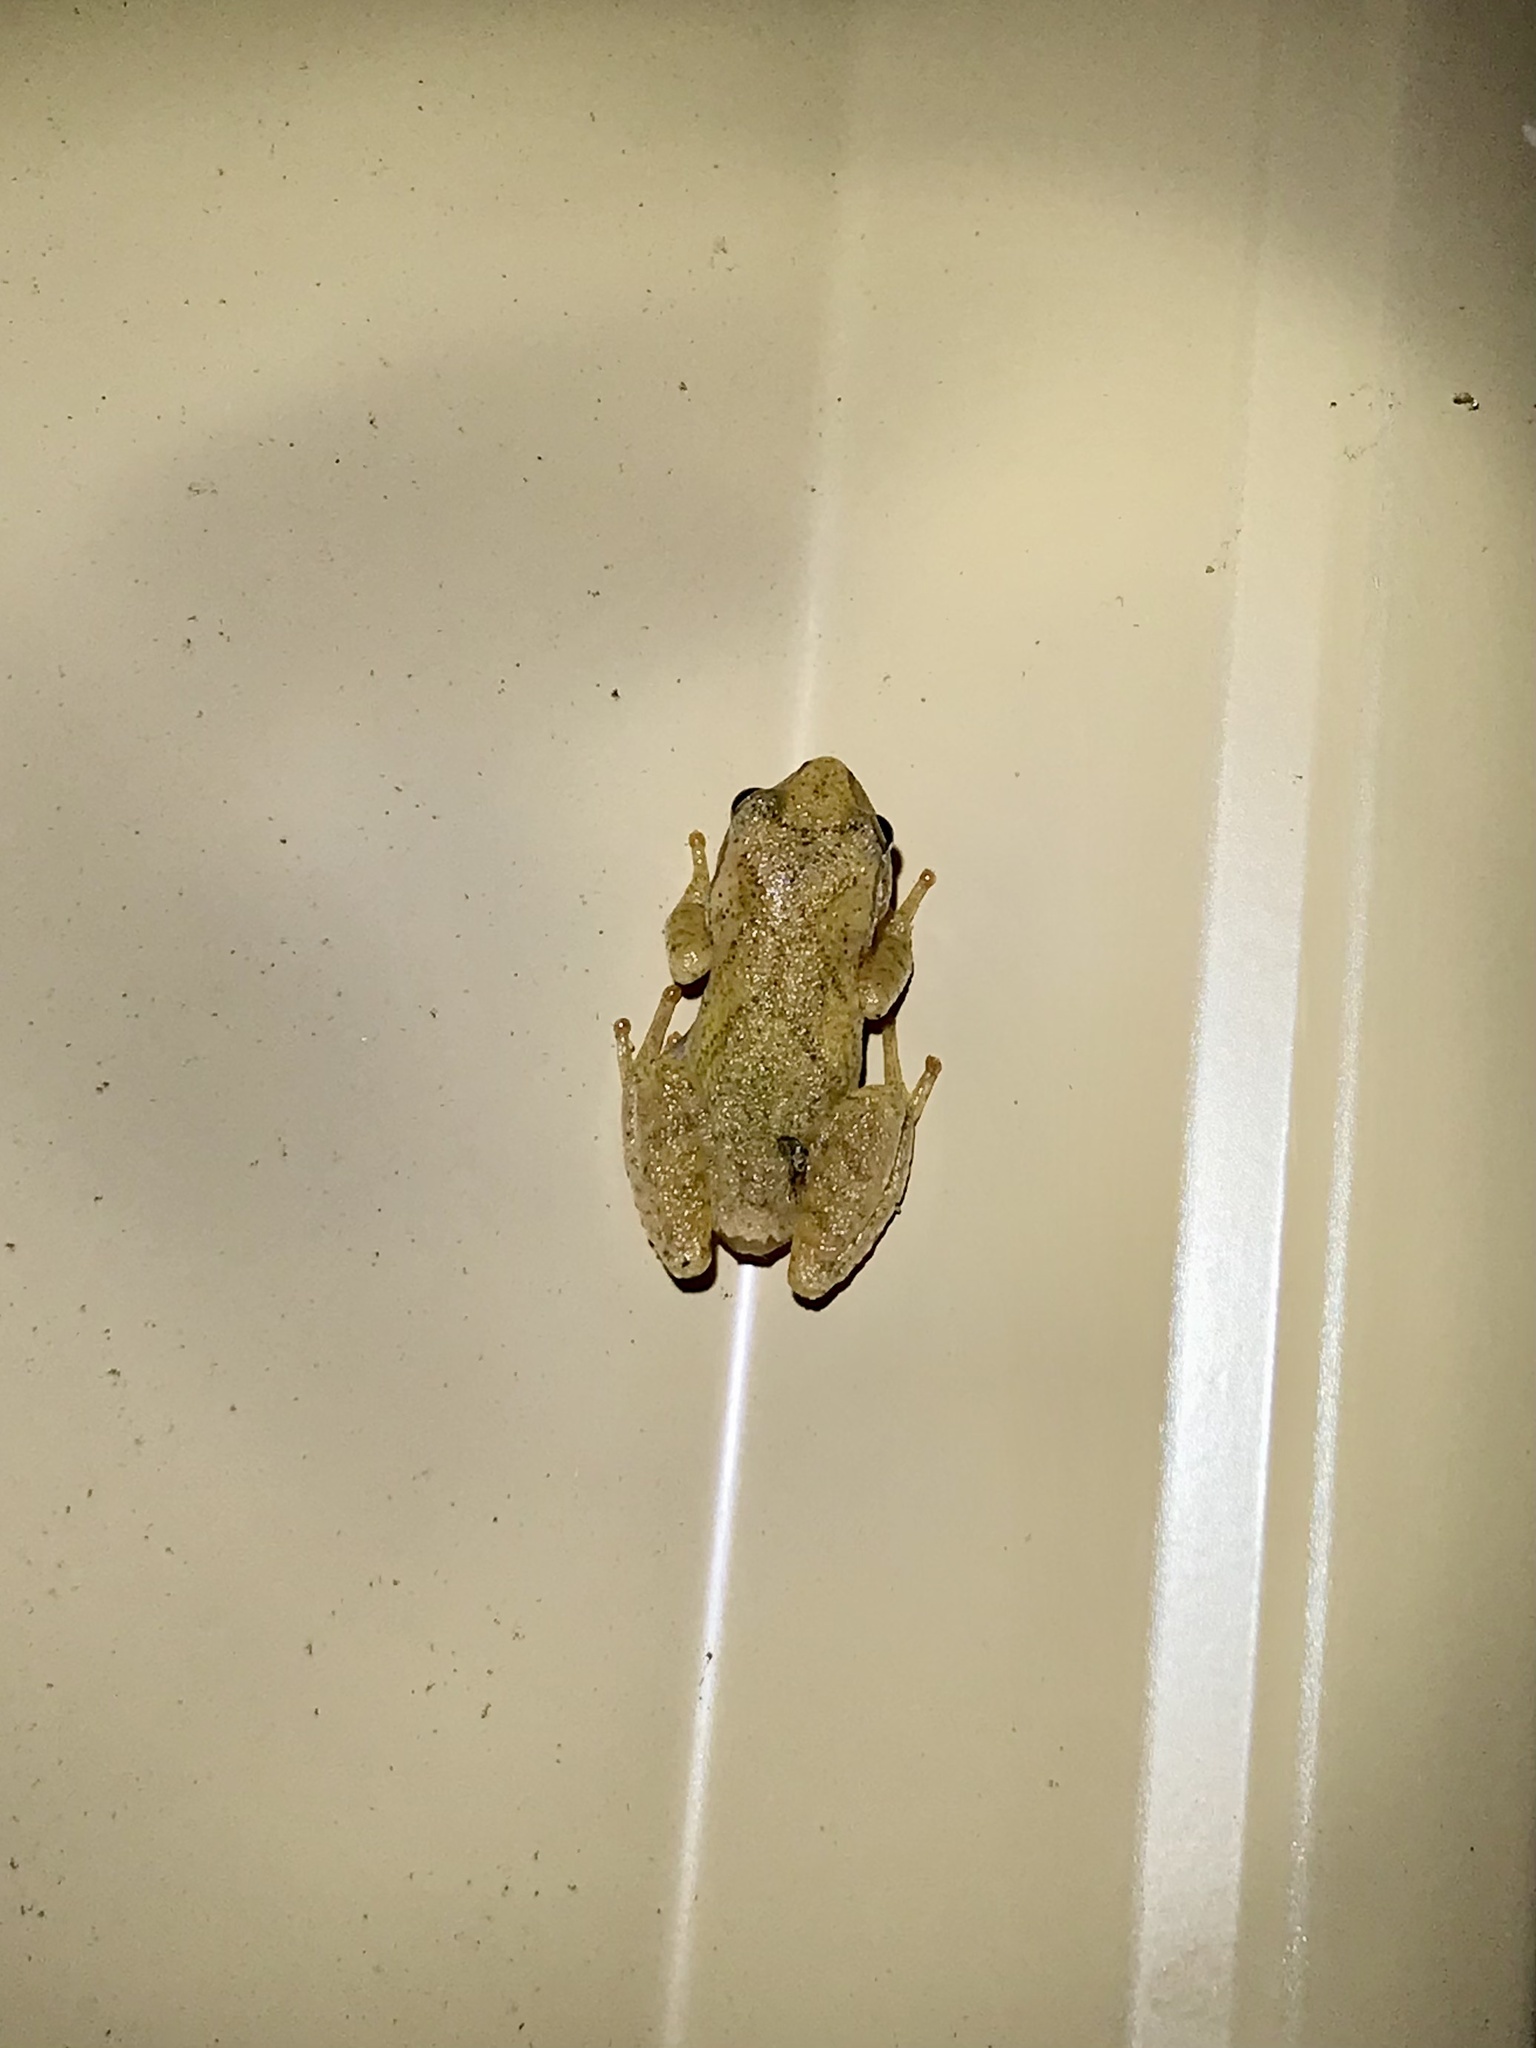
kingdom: Animalia
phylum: Chordata
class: Amphibia
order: Anura
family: Hylidae
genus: Pseudacris
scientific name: Pseudacris crucifer
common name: Spring peeper
